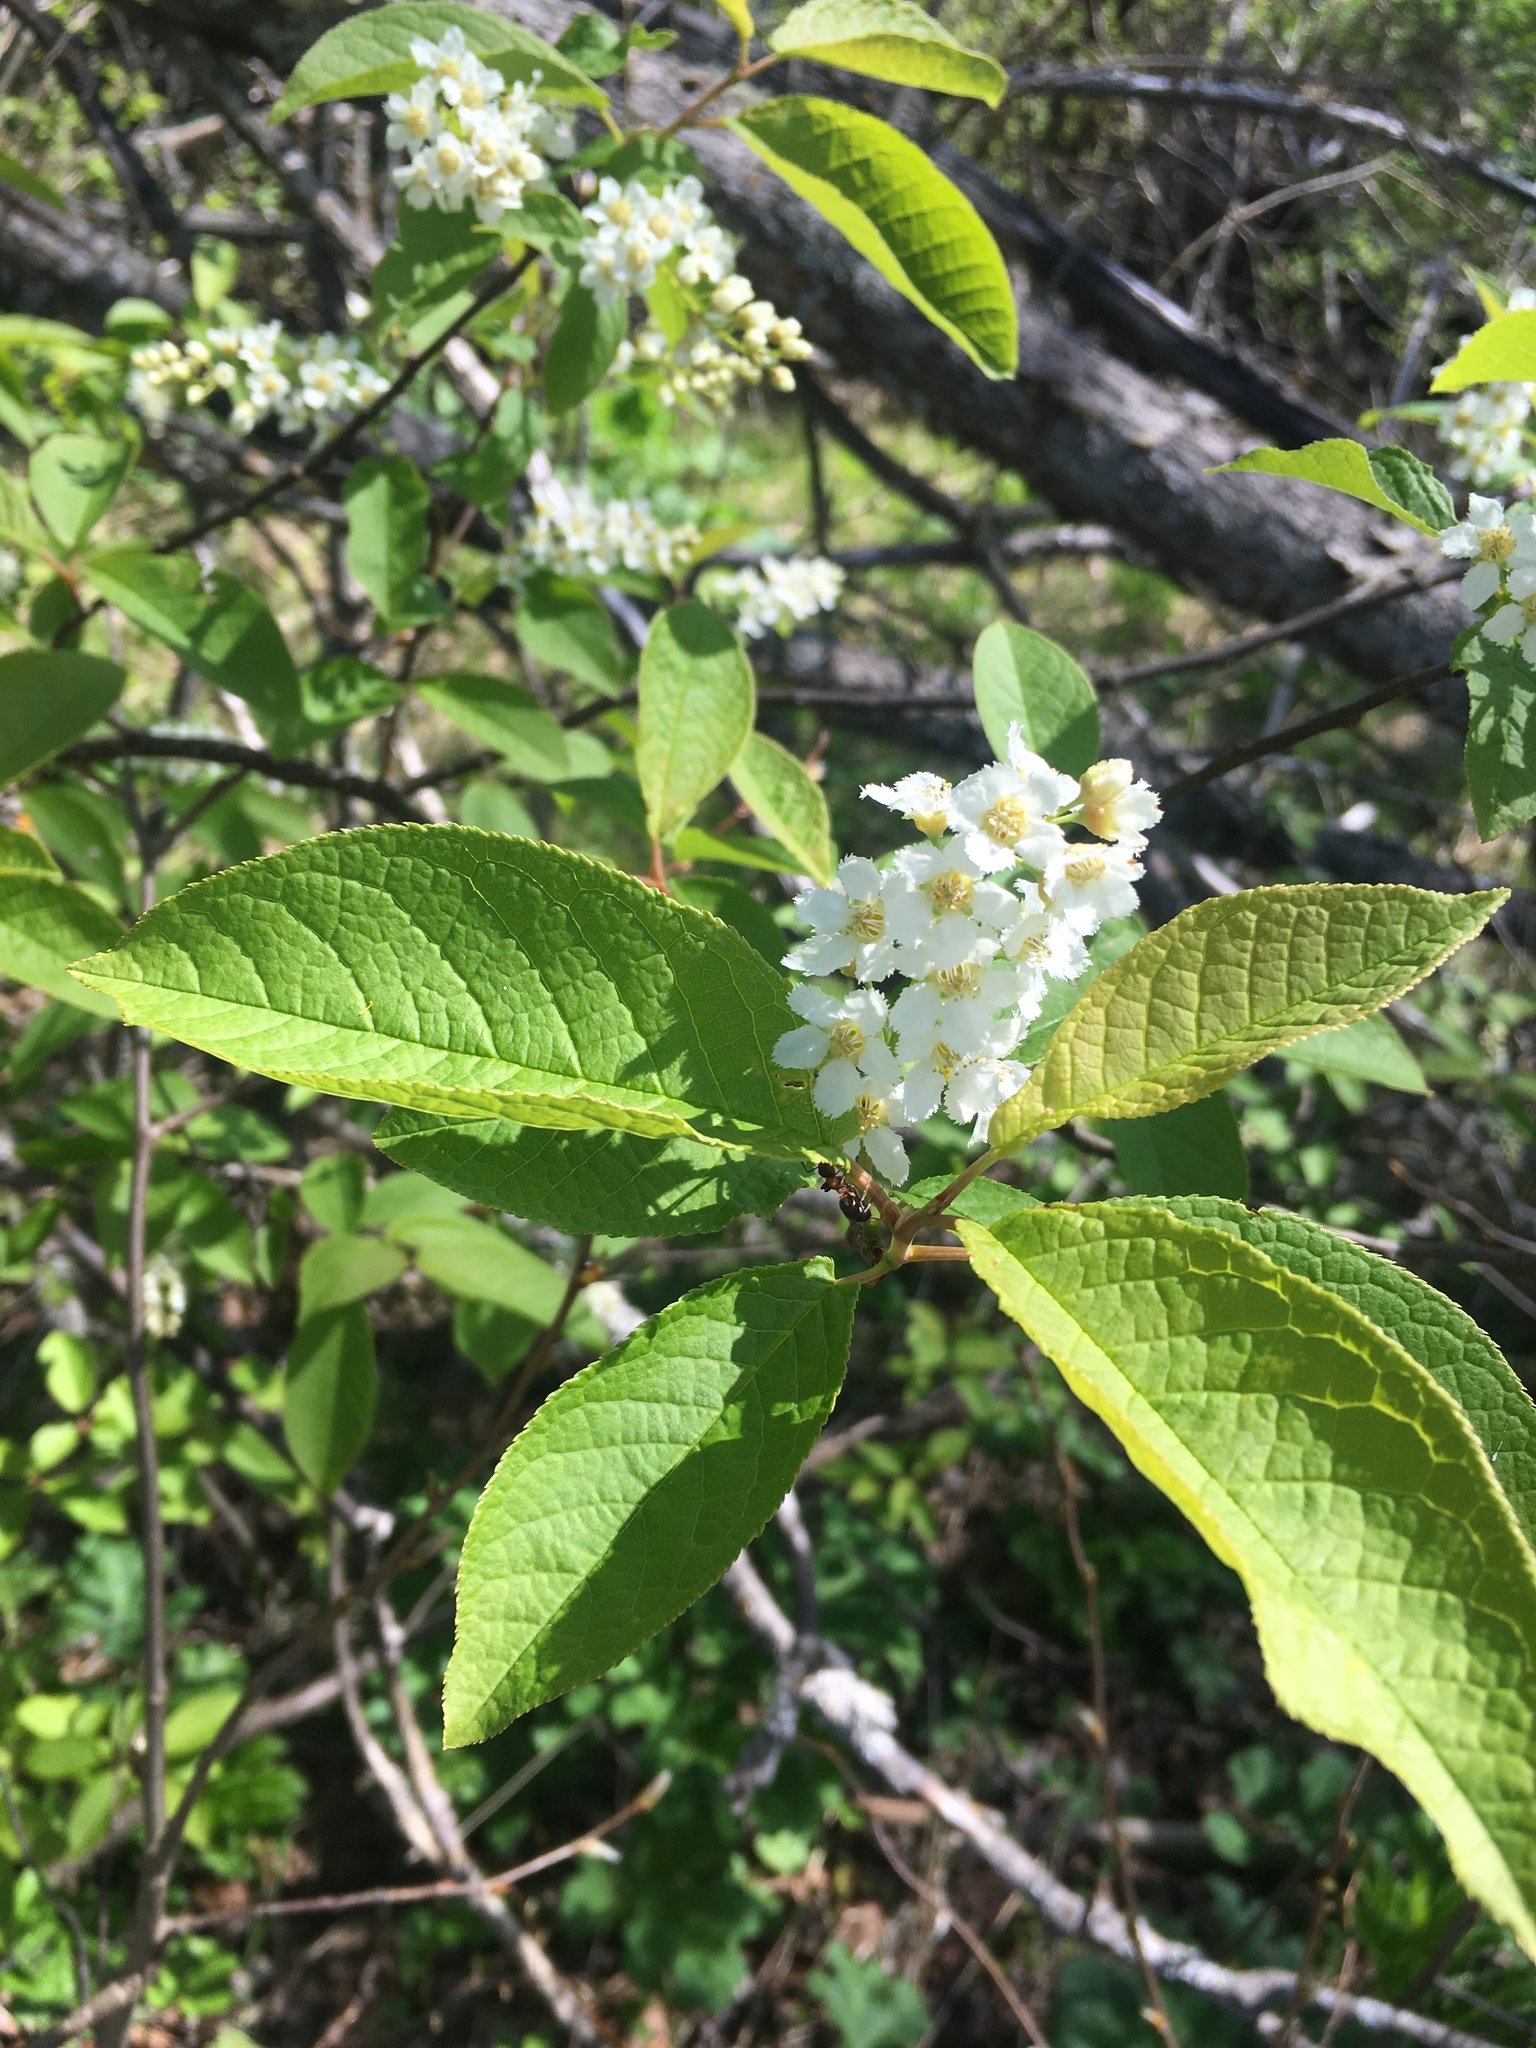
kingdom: Plantae
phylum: Tracheophyta
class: Magnoliopsida
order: Rosales
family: Rosaceae
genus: Prunus
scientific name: Prunus padus
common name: Bird cherry
